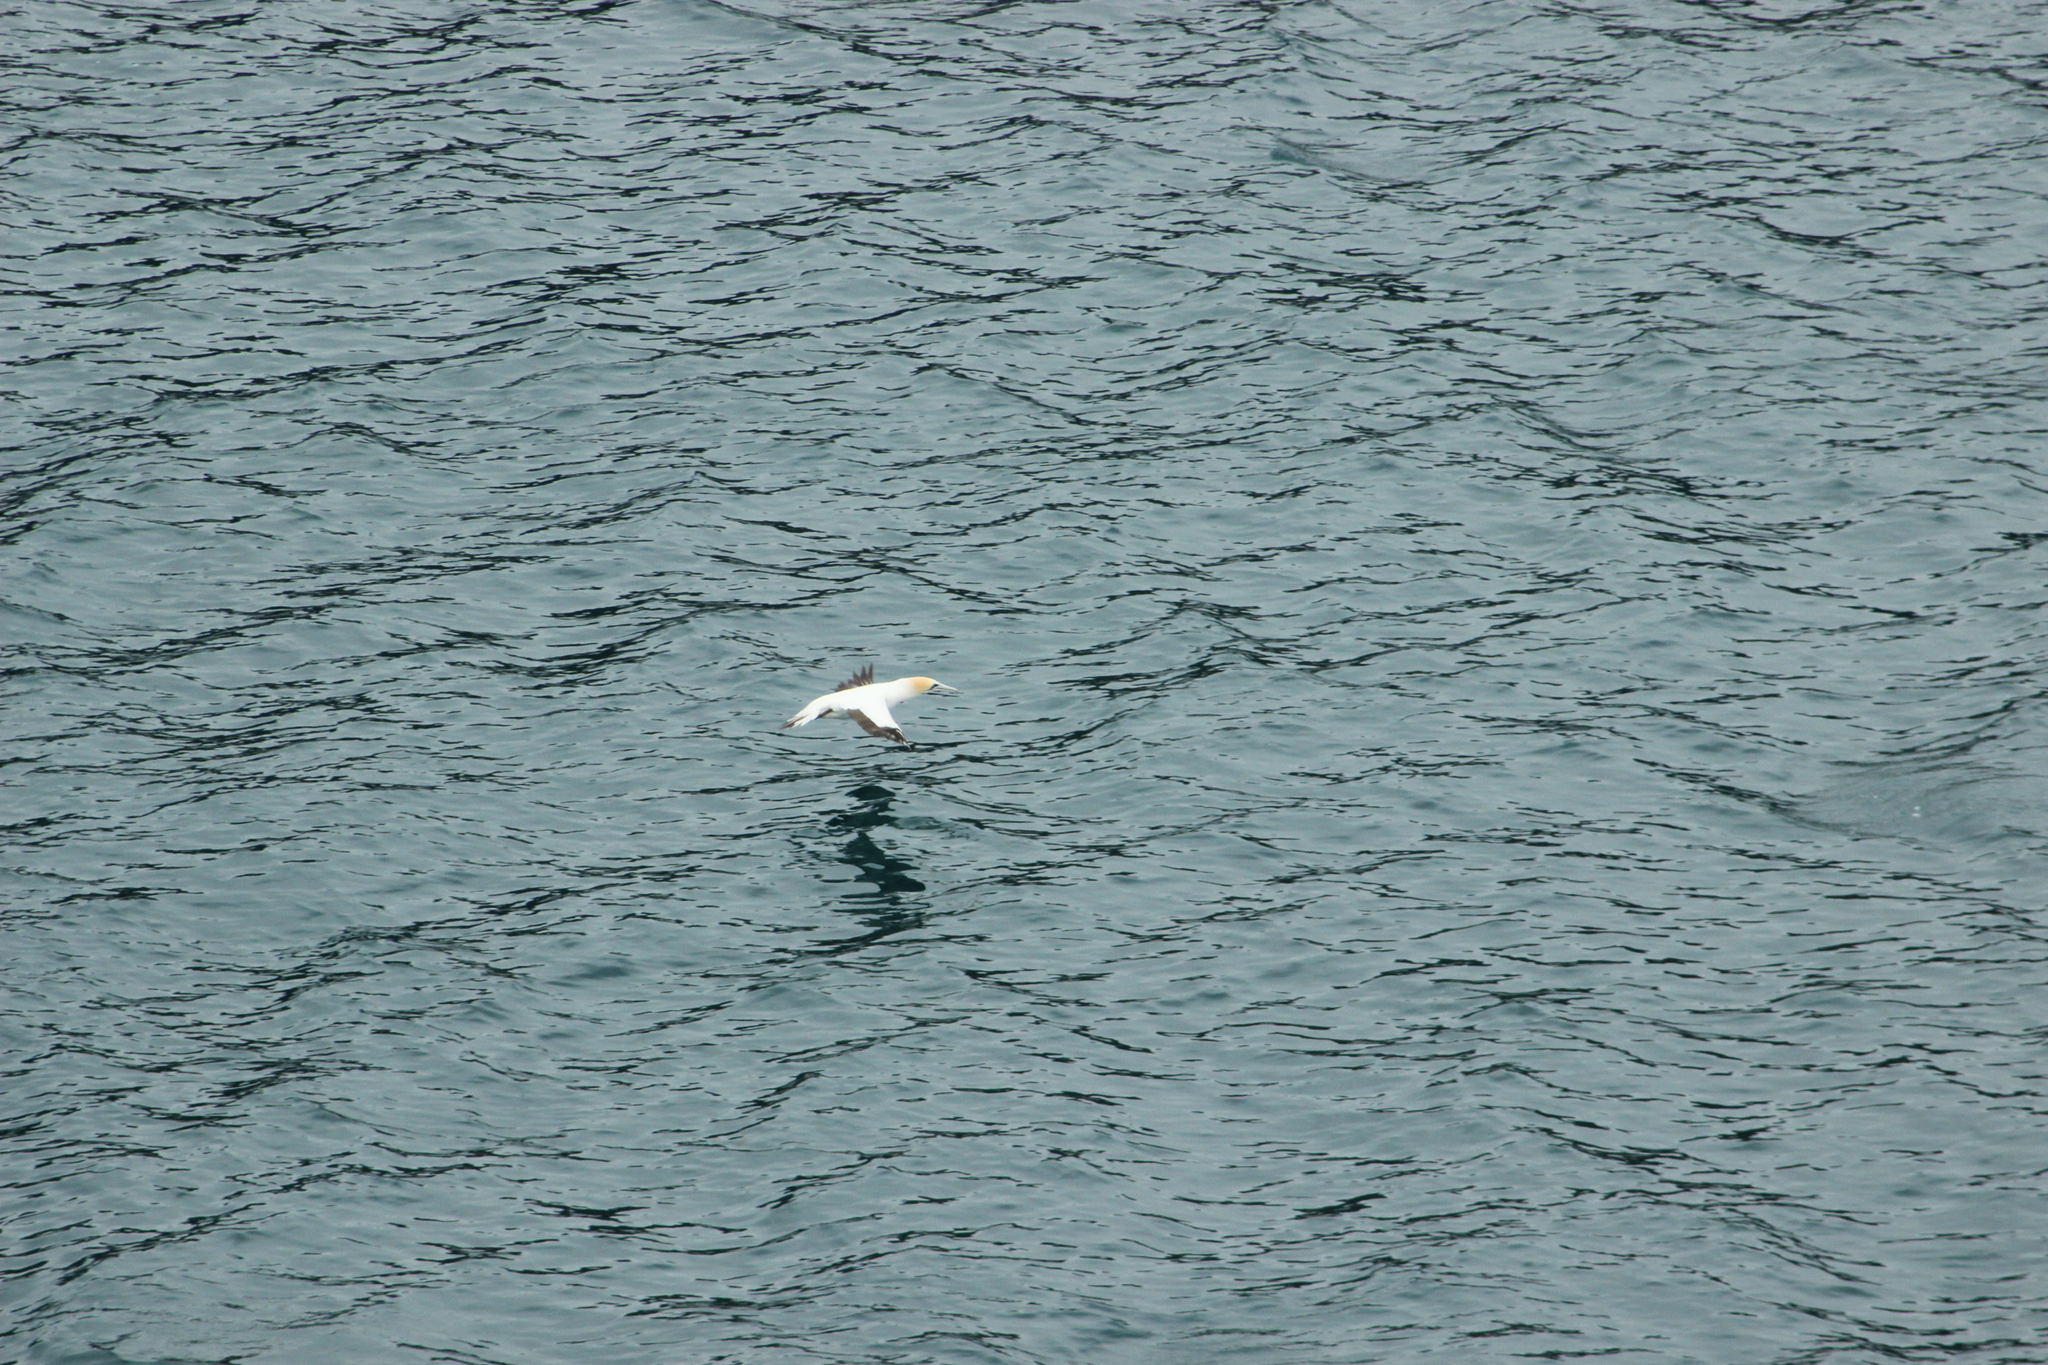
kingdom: Animalia
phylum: Chordata
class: Aves
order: Suliformes
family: Sulidae
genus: Morus
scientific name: Morus serrator
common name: Australasian gannet
